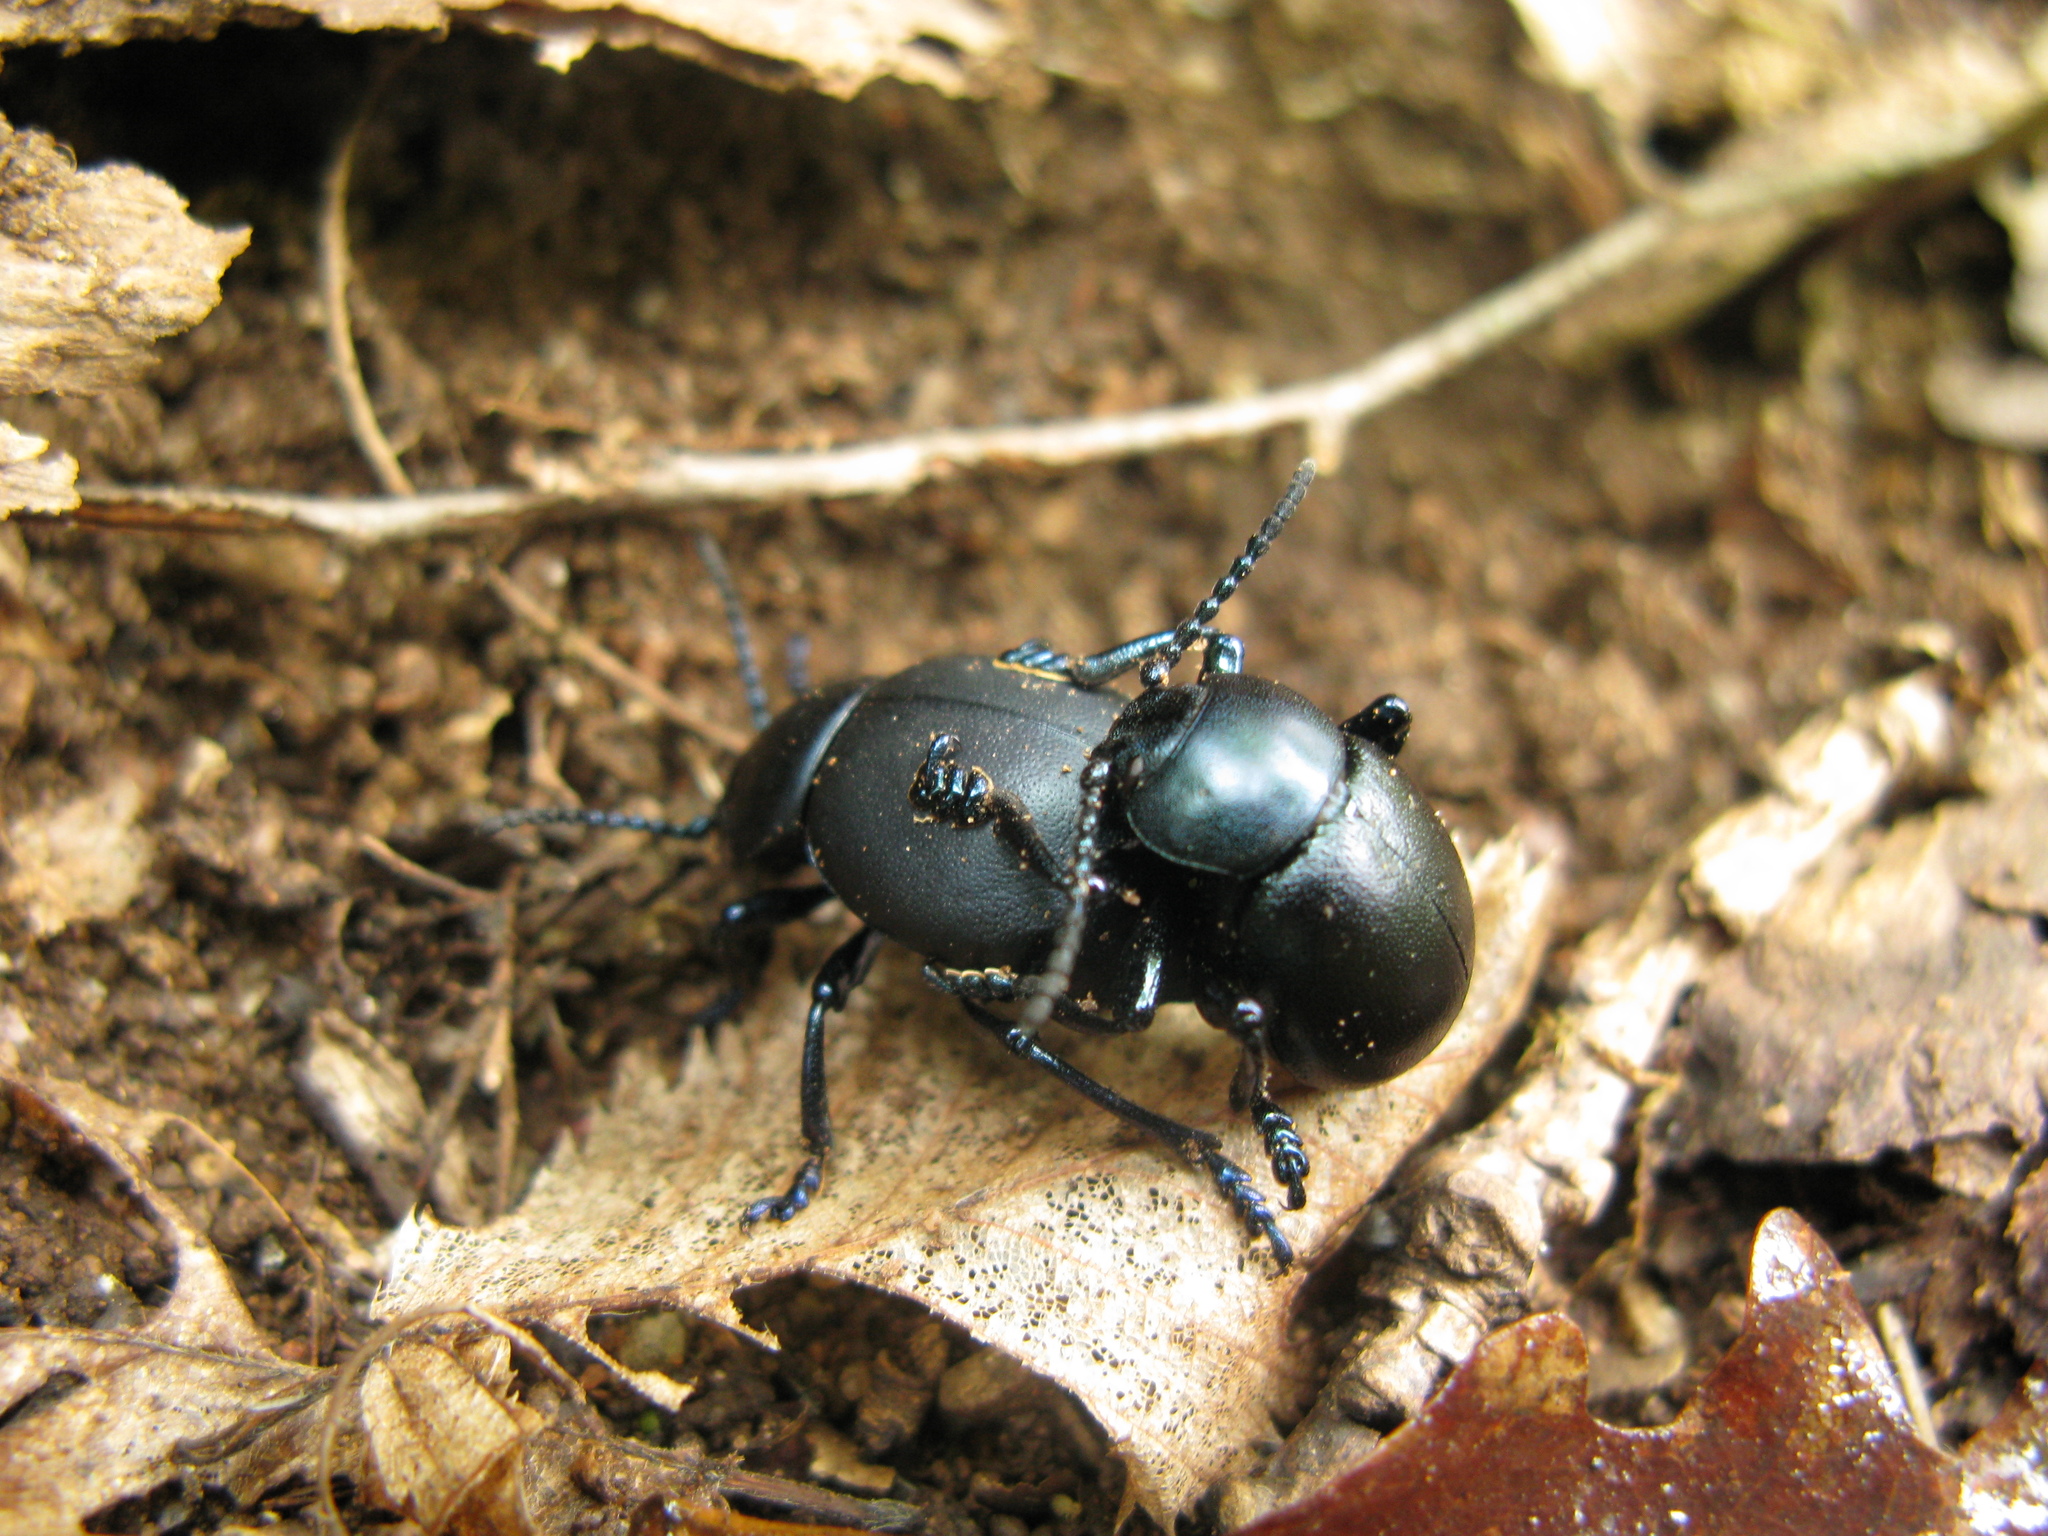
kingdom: Animalia
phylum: Arthropoda
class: Insecta
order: Coleoptera
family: Chrysomelidae
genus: Timarcha
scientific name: Timarcha tenebricosa
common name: Bloody-nosed beetle
